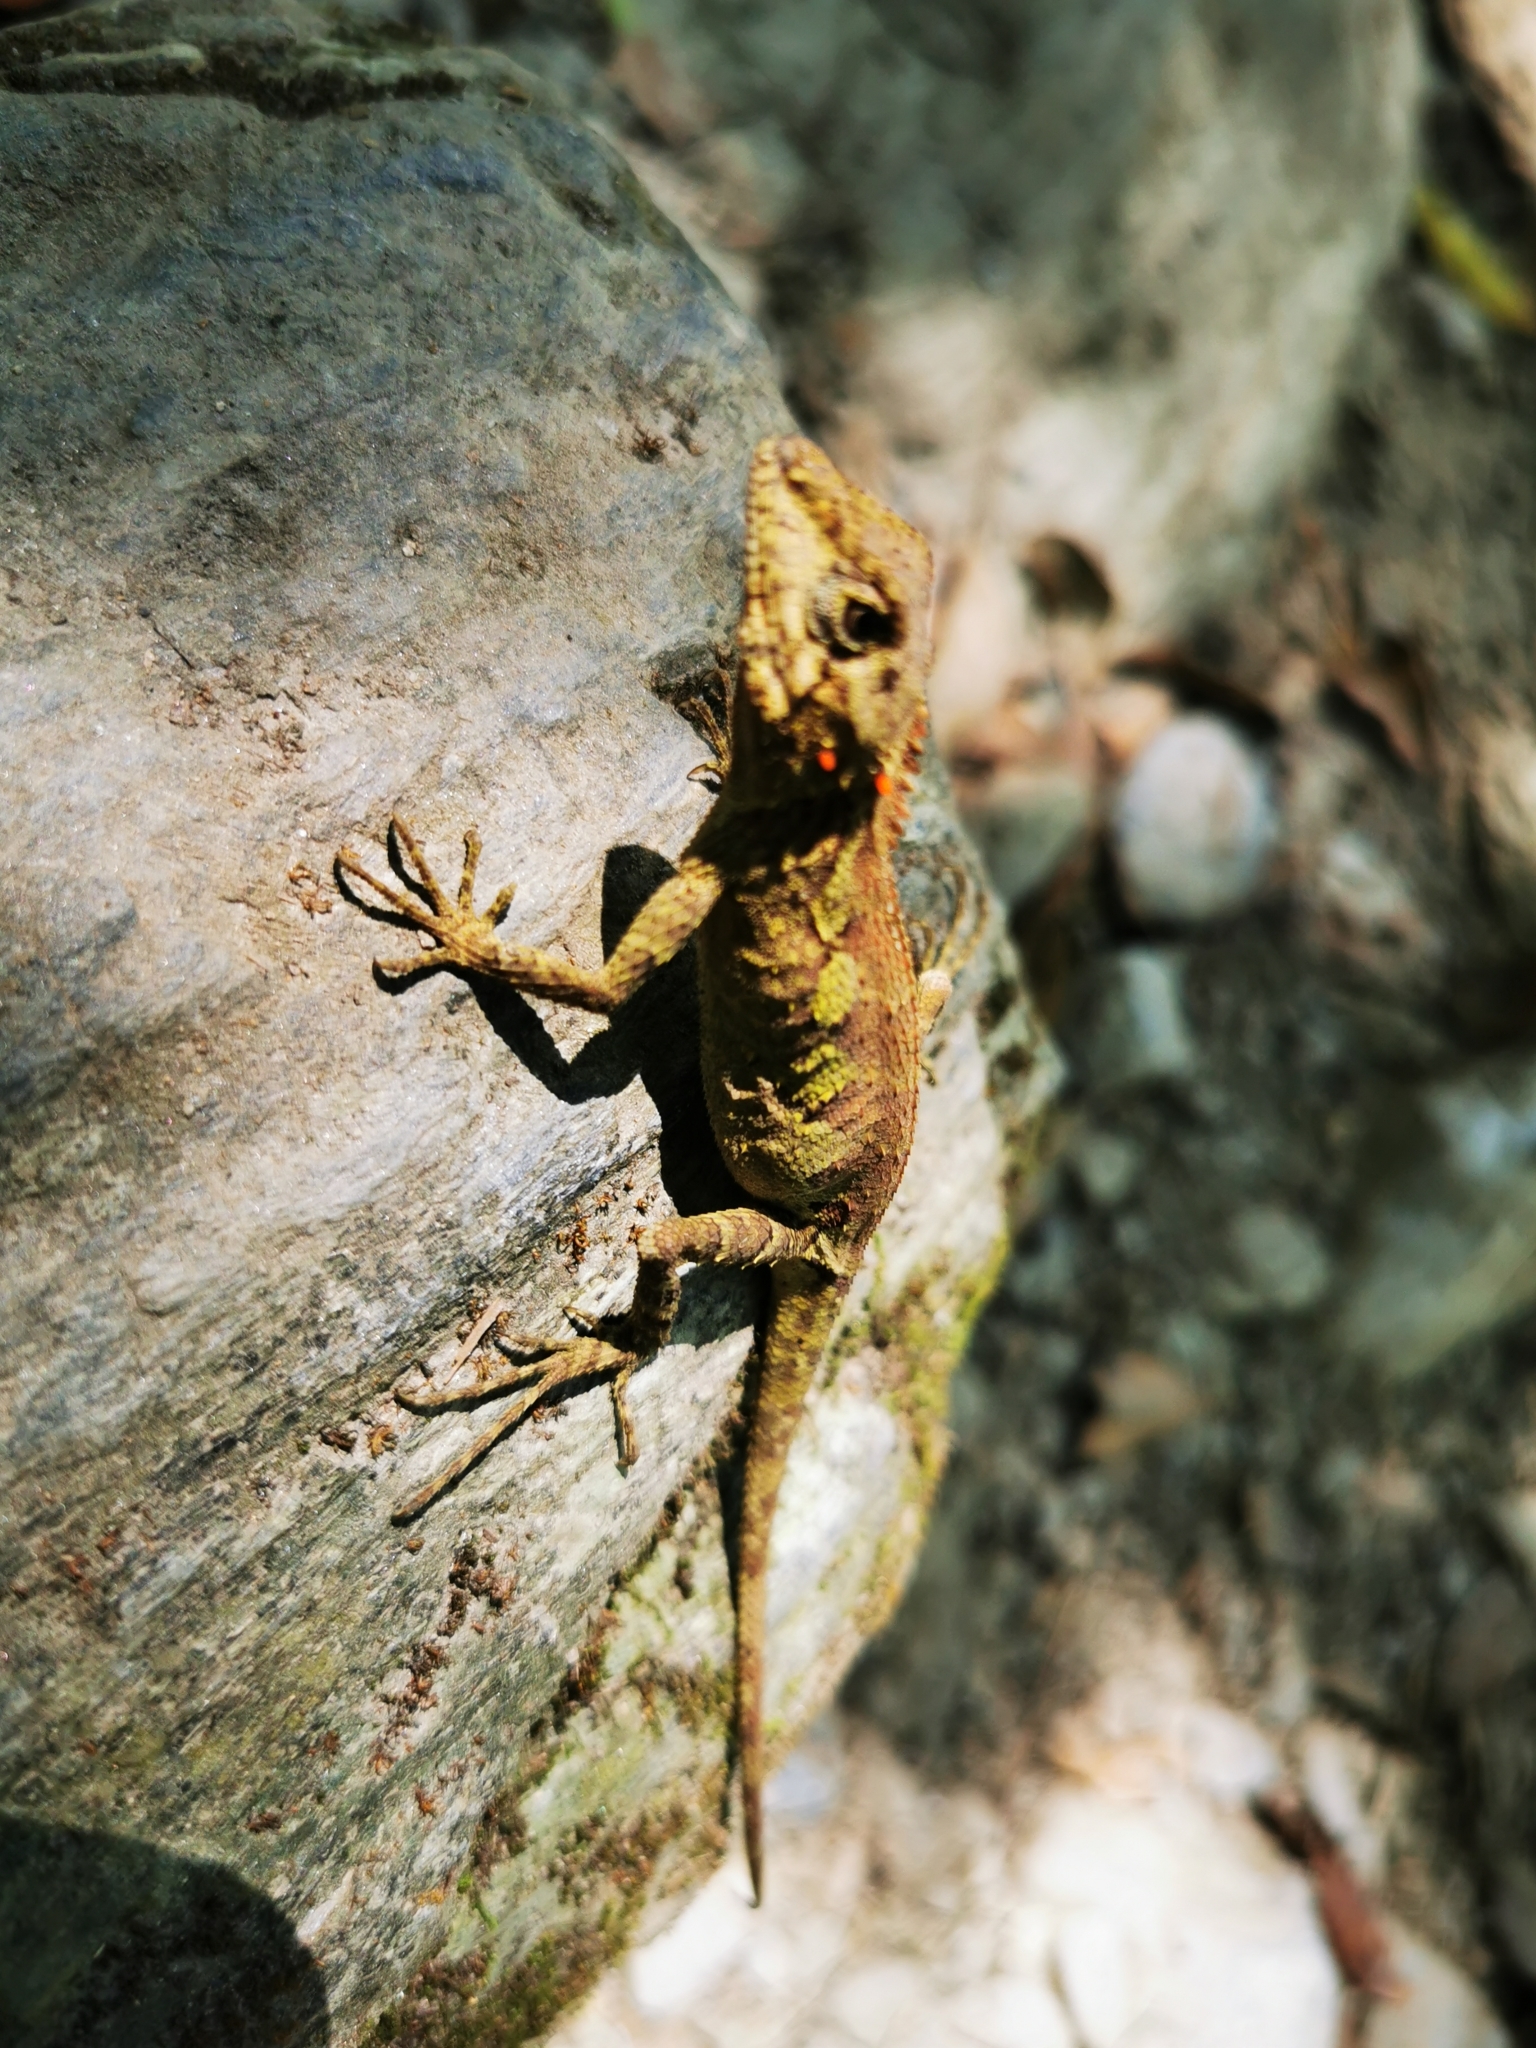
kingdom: Animalia
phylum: Chordata
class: Squamata
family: Agamidae
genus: Diploderma
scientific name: Diploderma swinhonis
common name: Taiwan japalure
